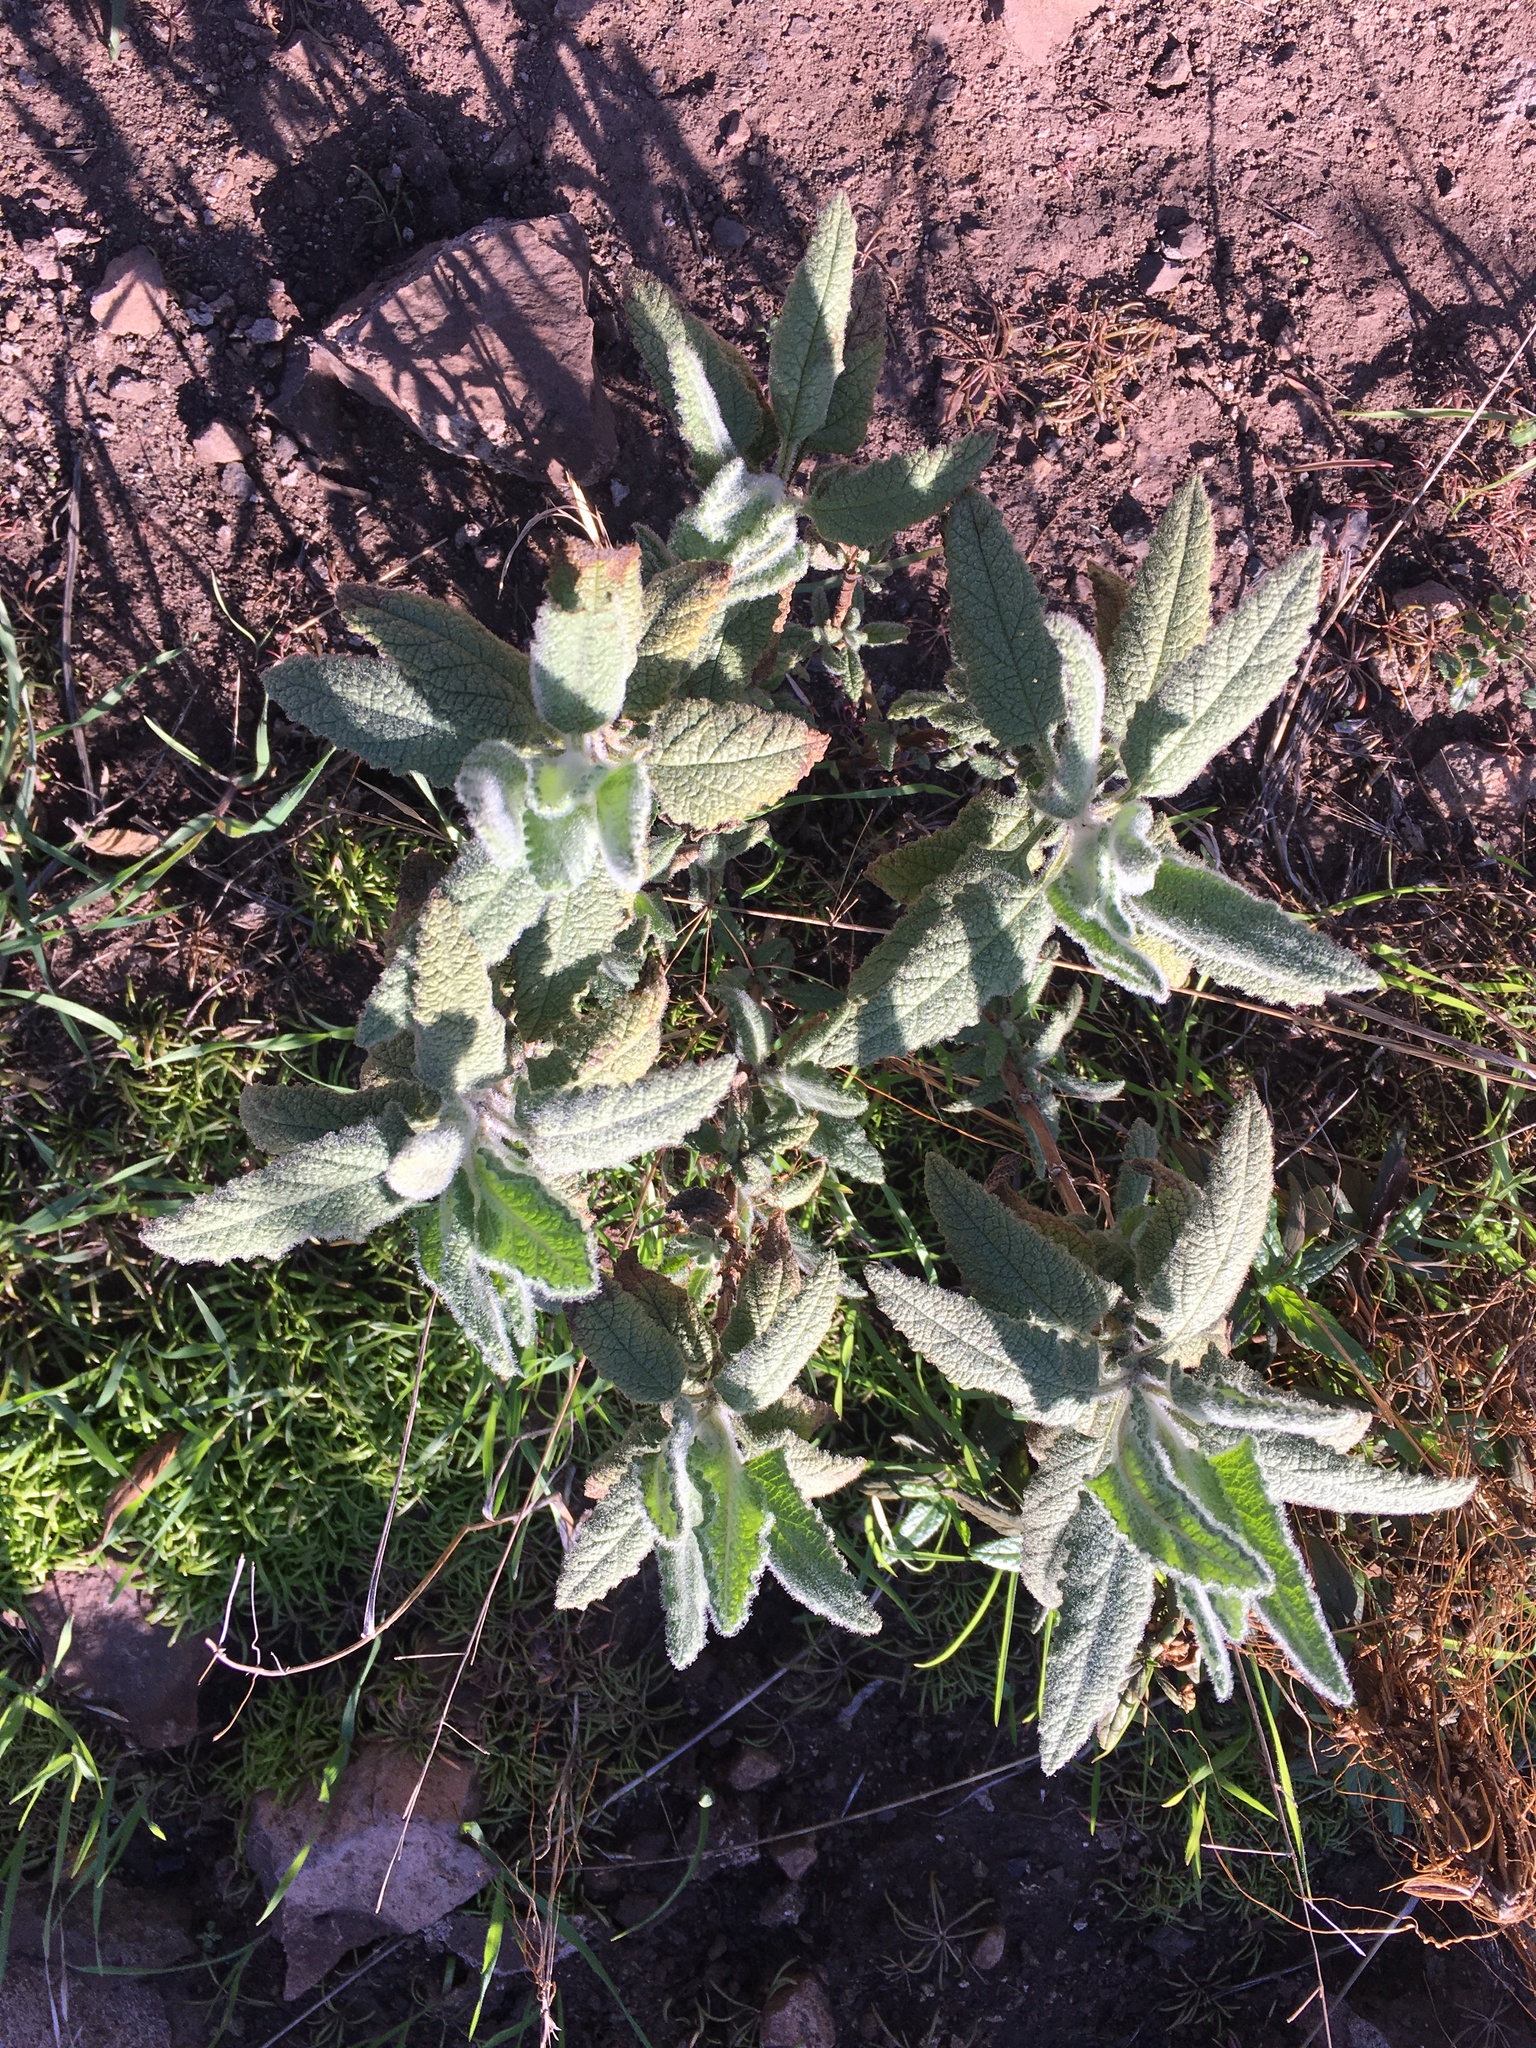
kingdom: Plantae
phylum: Tracheophyta
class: Magnoliopsida
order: Lamiales
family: Lamiaceae
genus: Lepechinia
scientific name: Lepechinia fragrans
